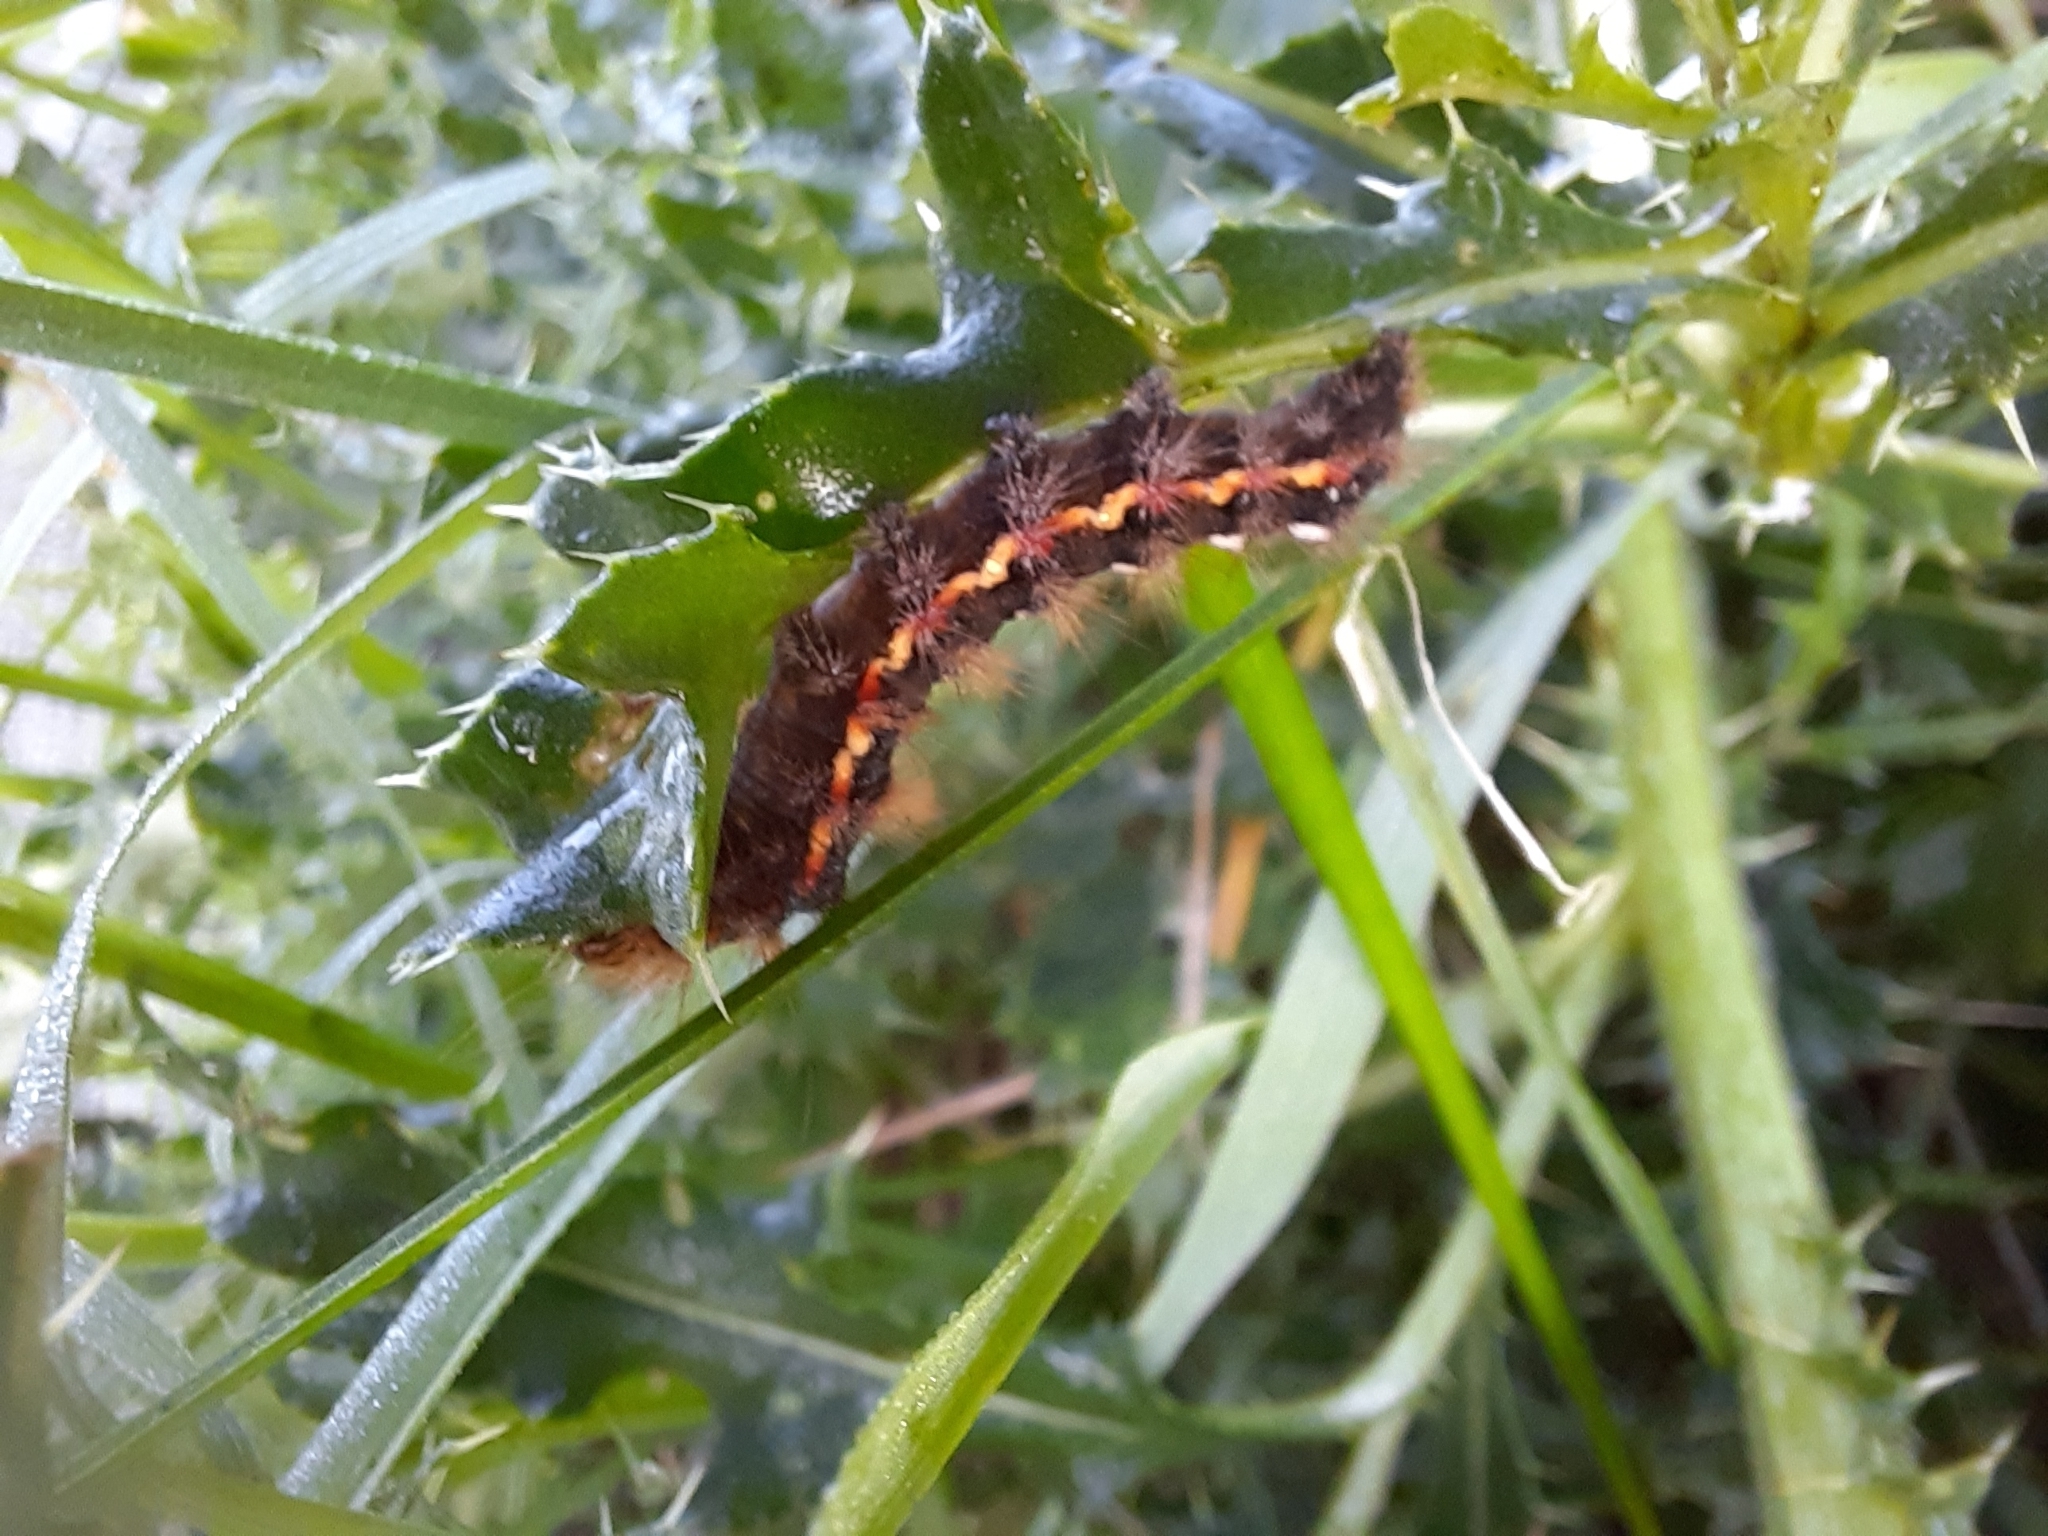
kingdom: Animalia
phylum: Arthropoda
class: Insecta
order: Lepidoptera
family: Noctuidae
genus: Acronicta
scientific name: Acronicta rumicis
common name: Knot grass
